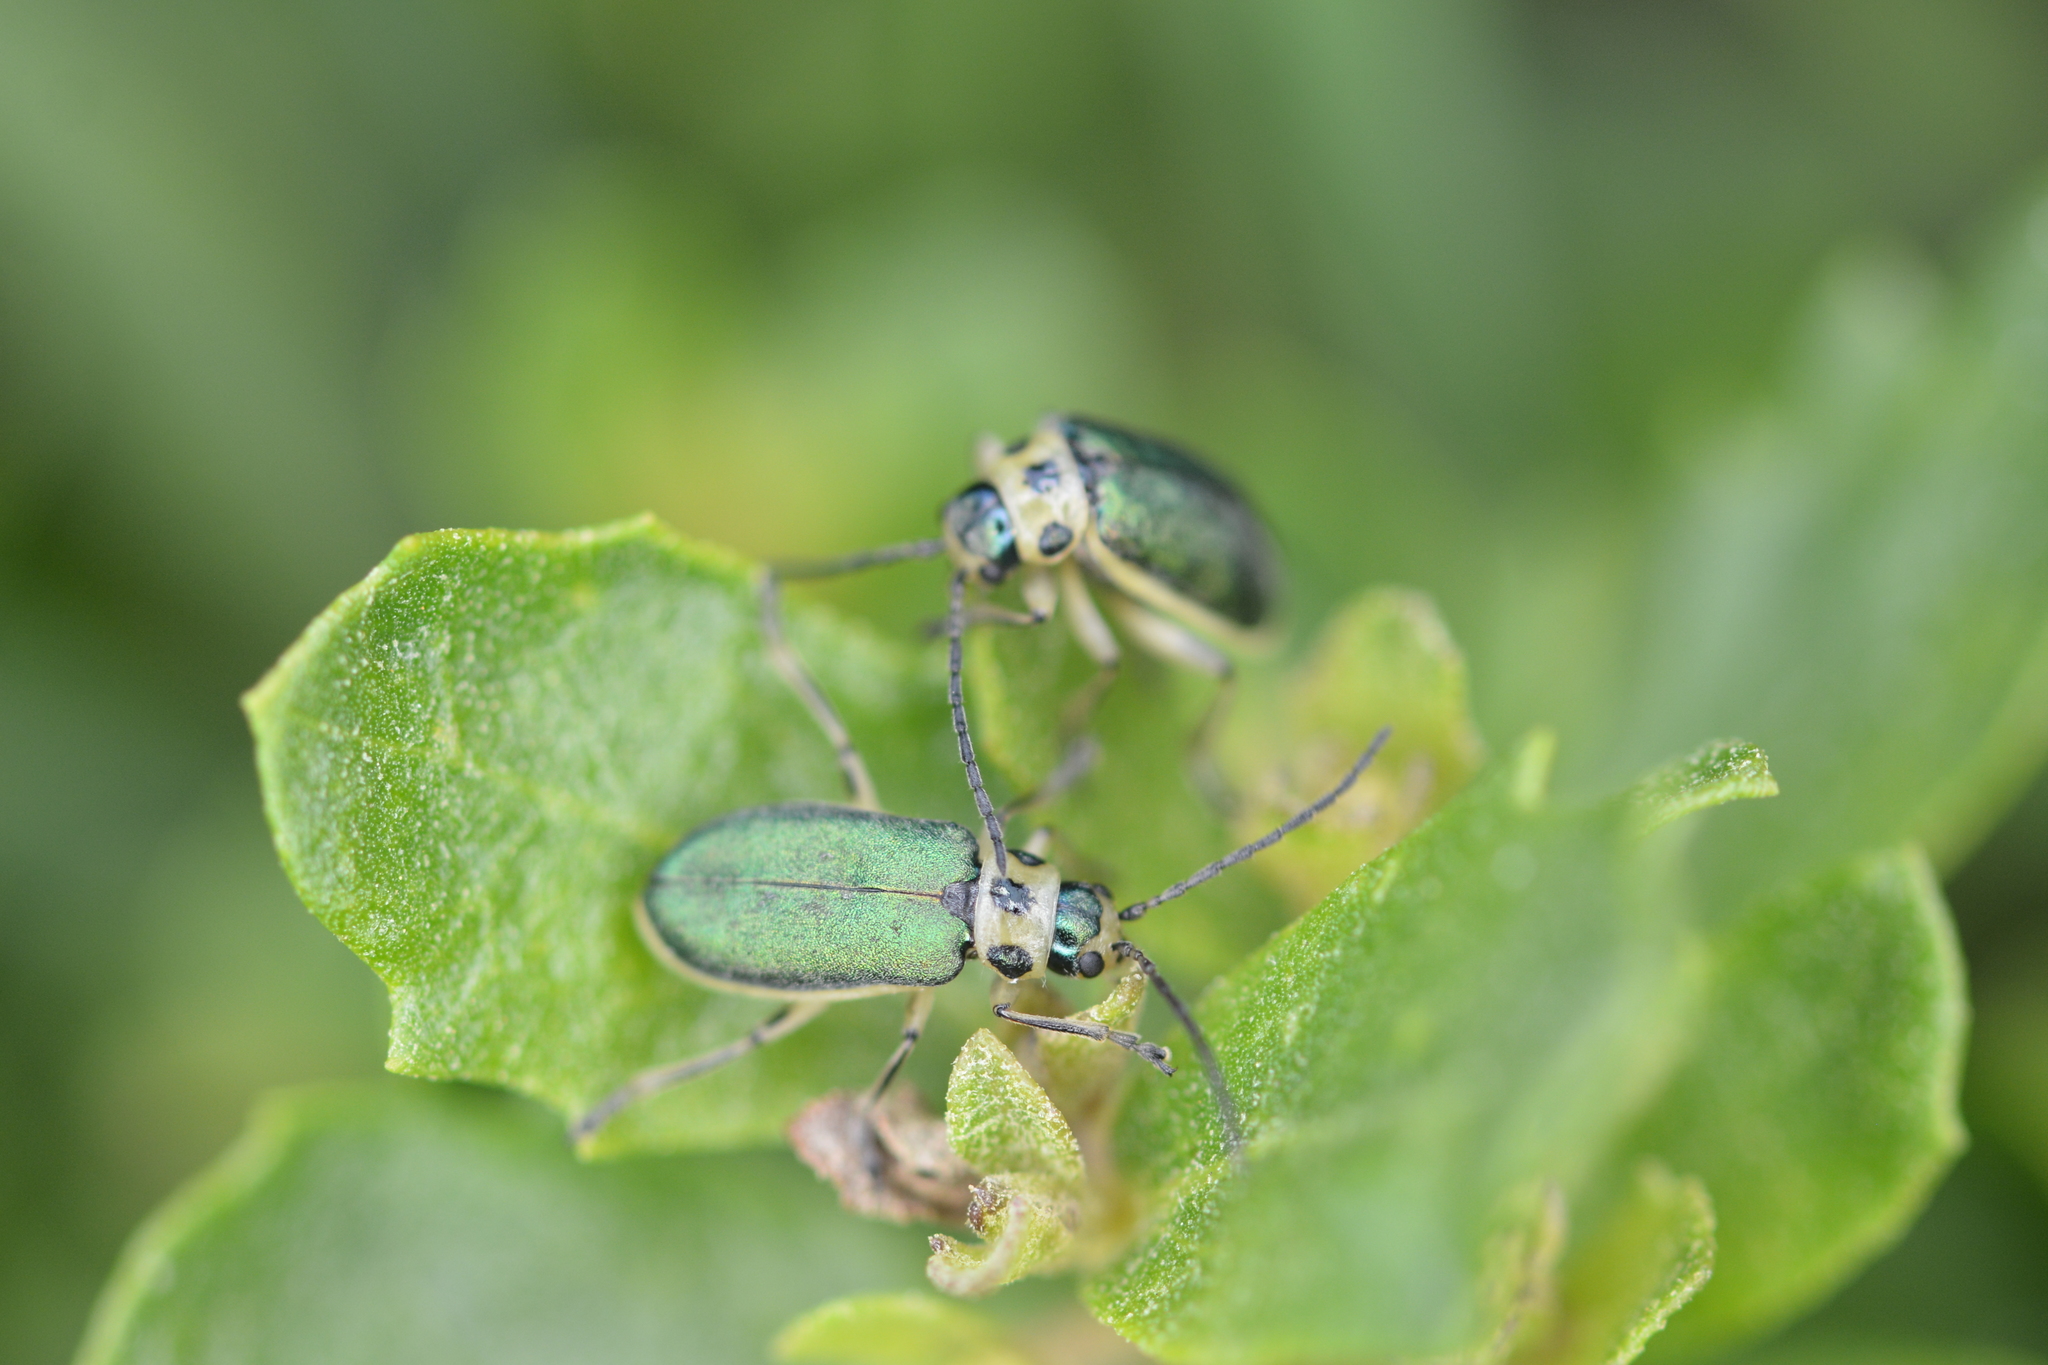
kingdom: Animalia
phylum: Arthropoda
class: Insecta
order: Coleoptera
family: Chrysomelidae
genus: Trirhabda
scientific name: Trirhabda flavolimbata
